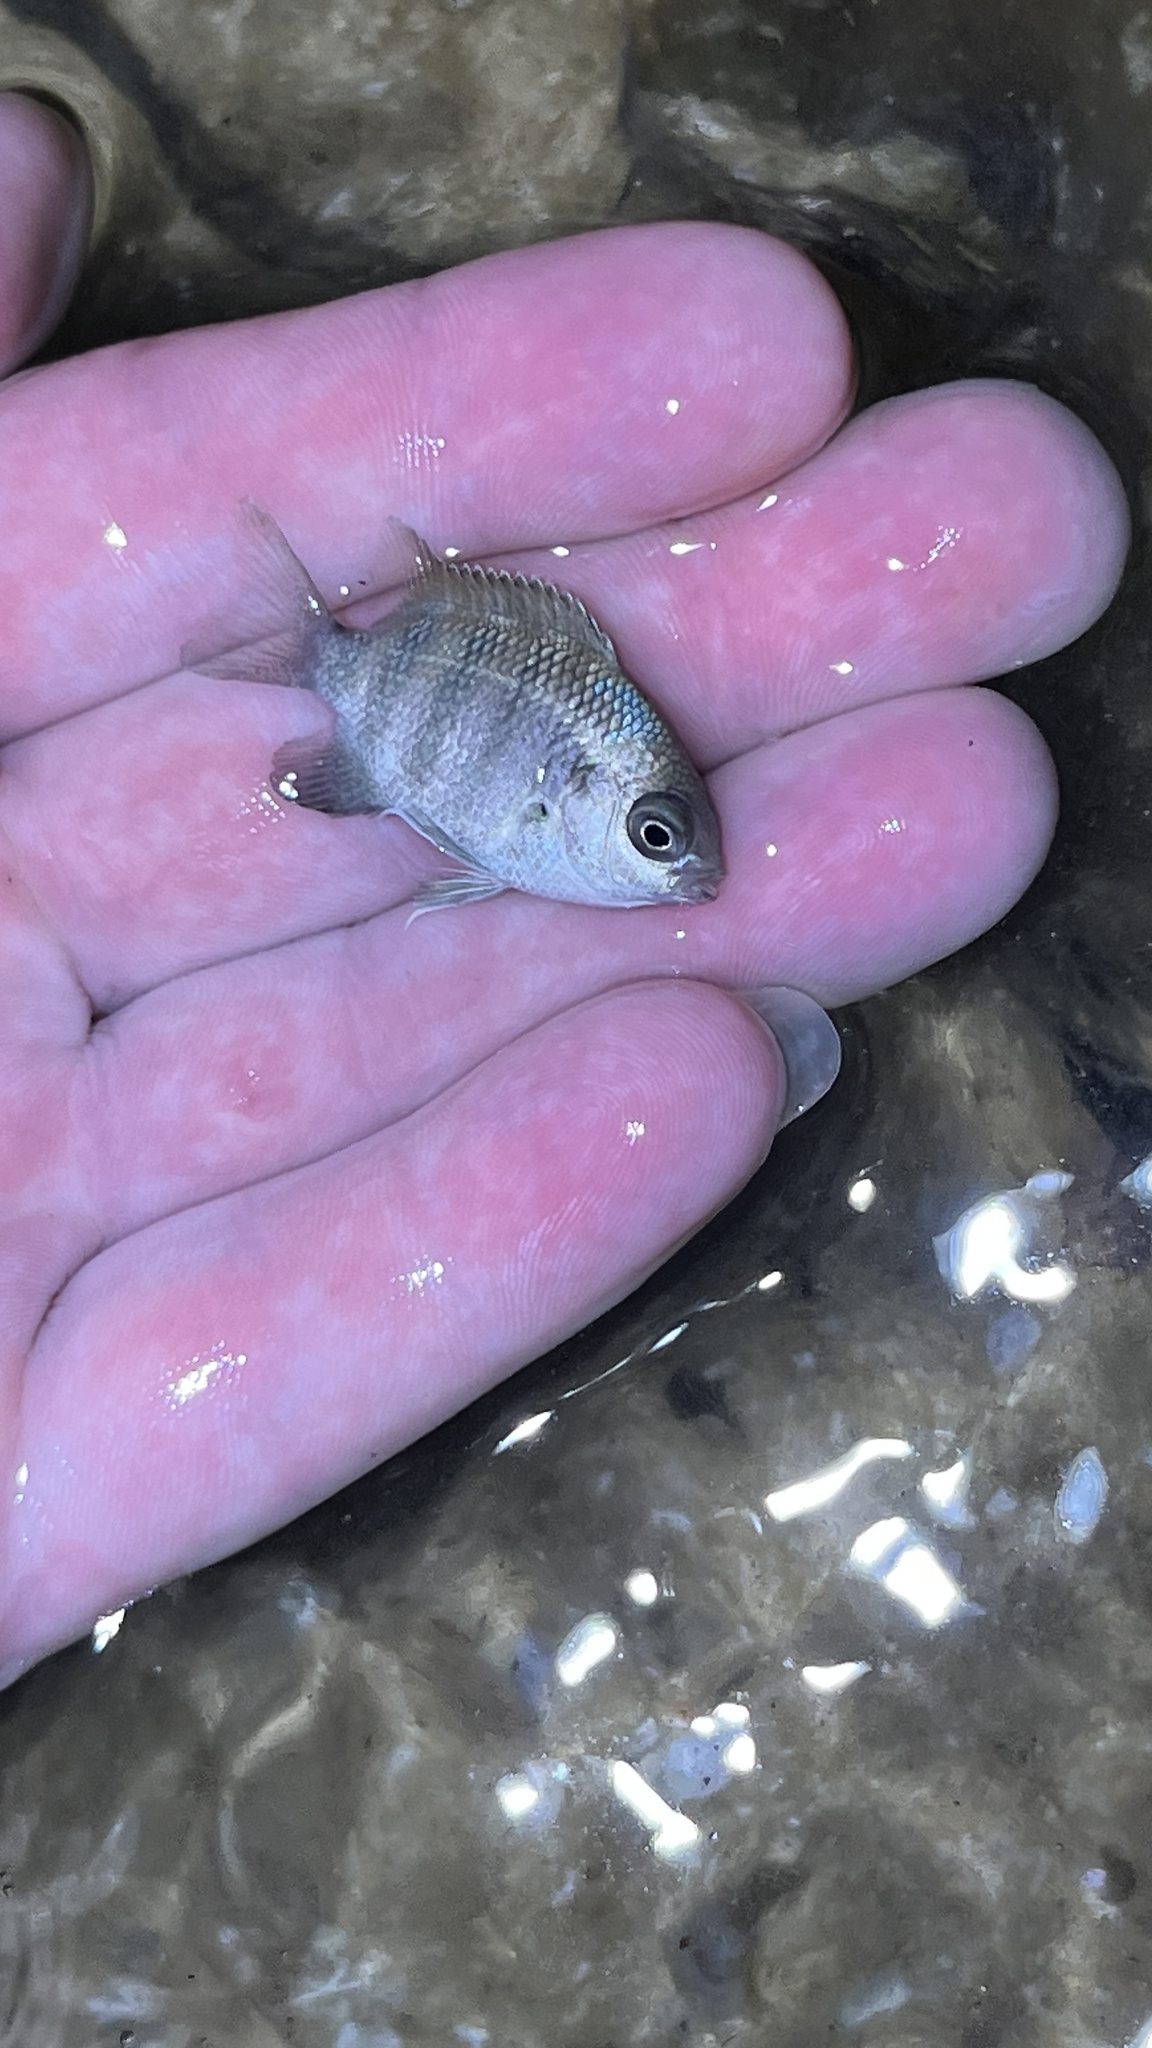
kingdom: Animalia
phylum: Chordata
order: Perciformes
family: Pomacentridae
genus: Abudefduf
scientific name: Abudefduf sordidus
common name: Blackspot sergeant
